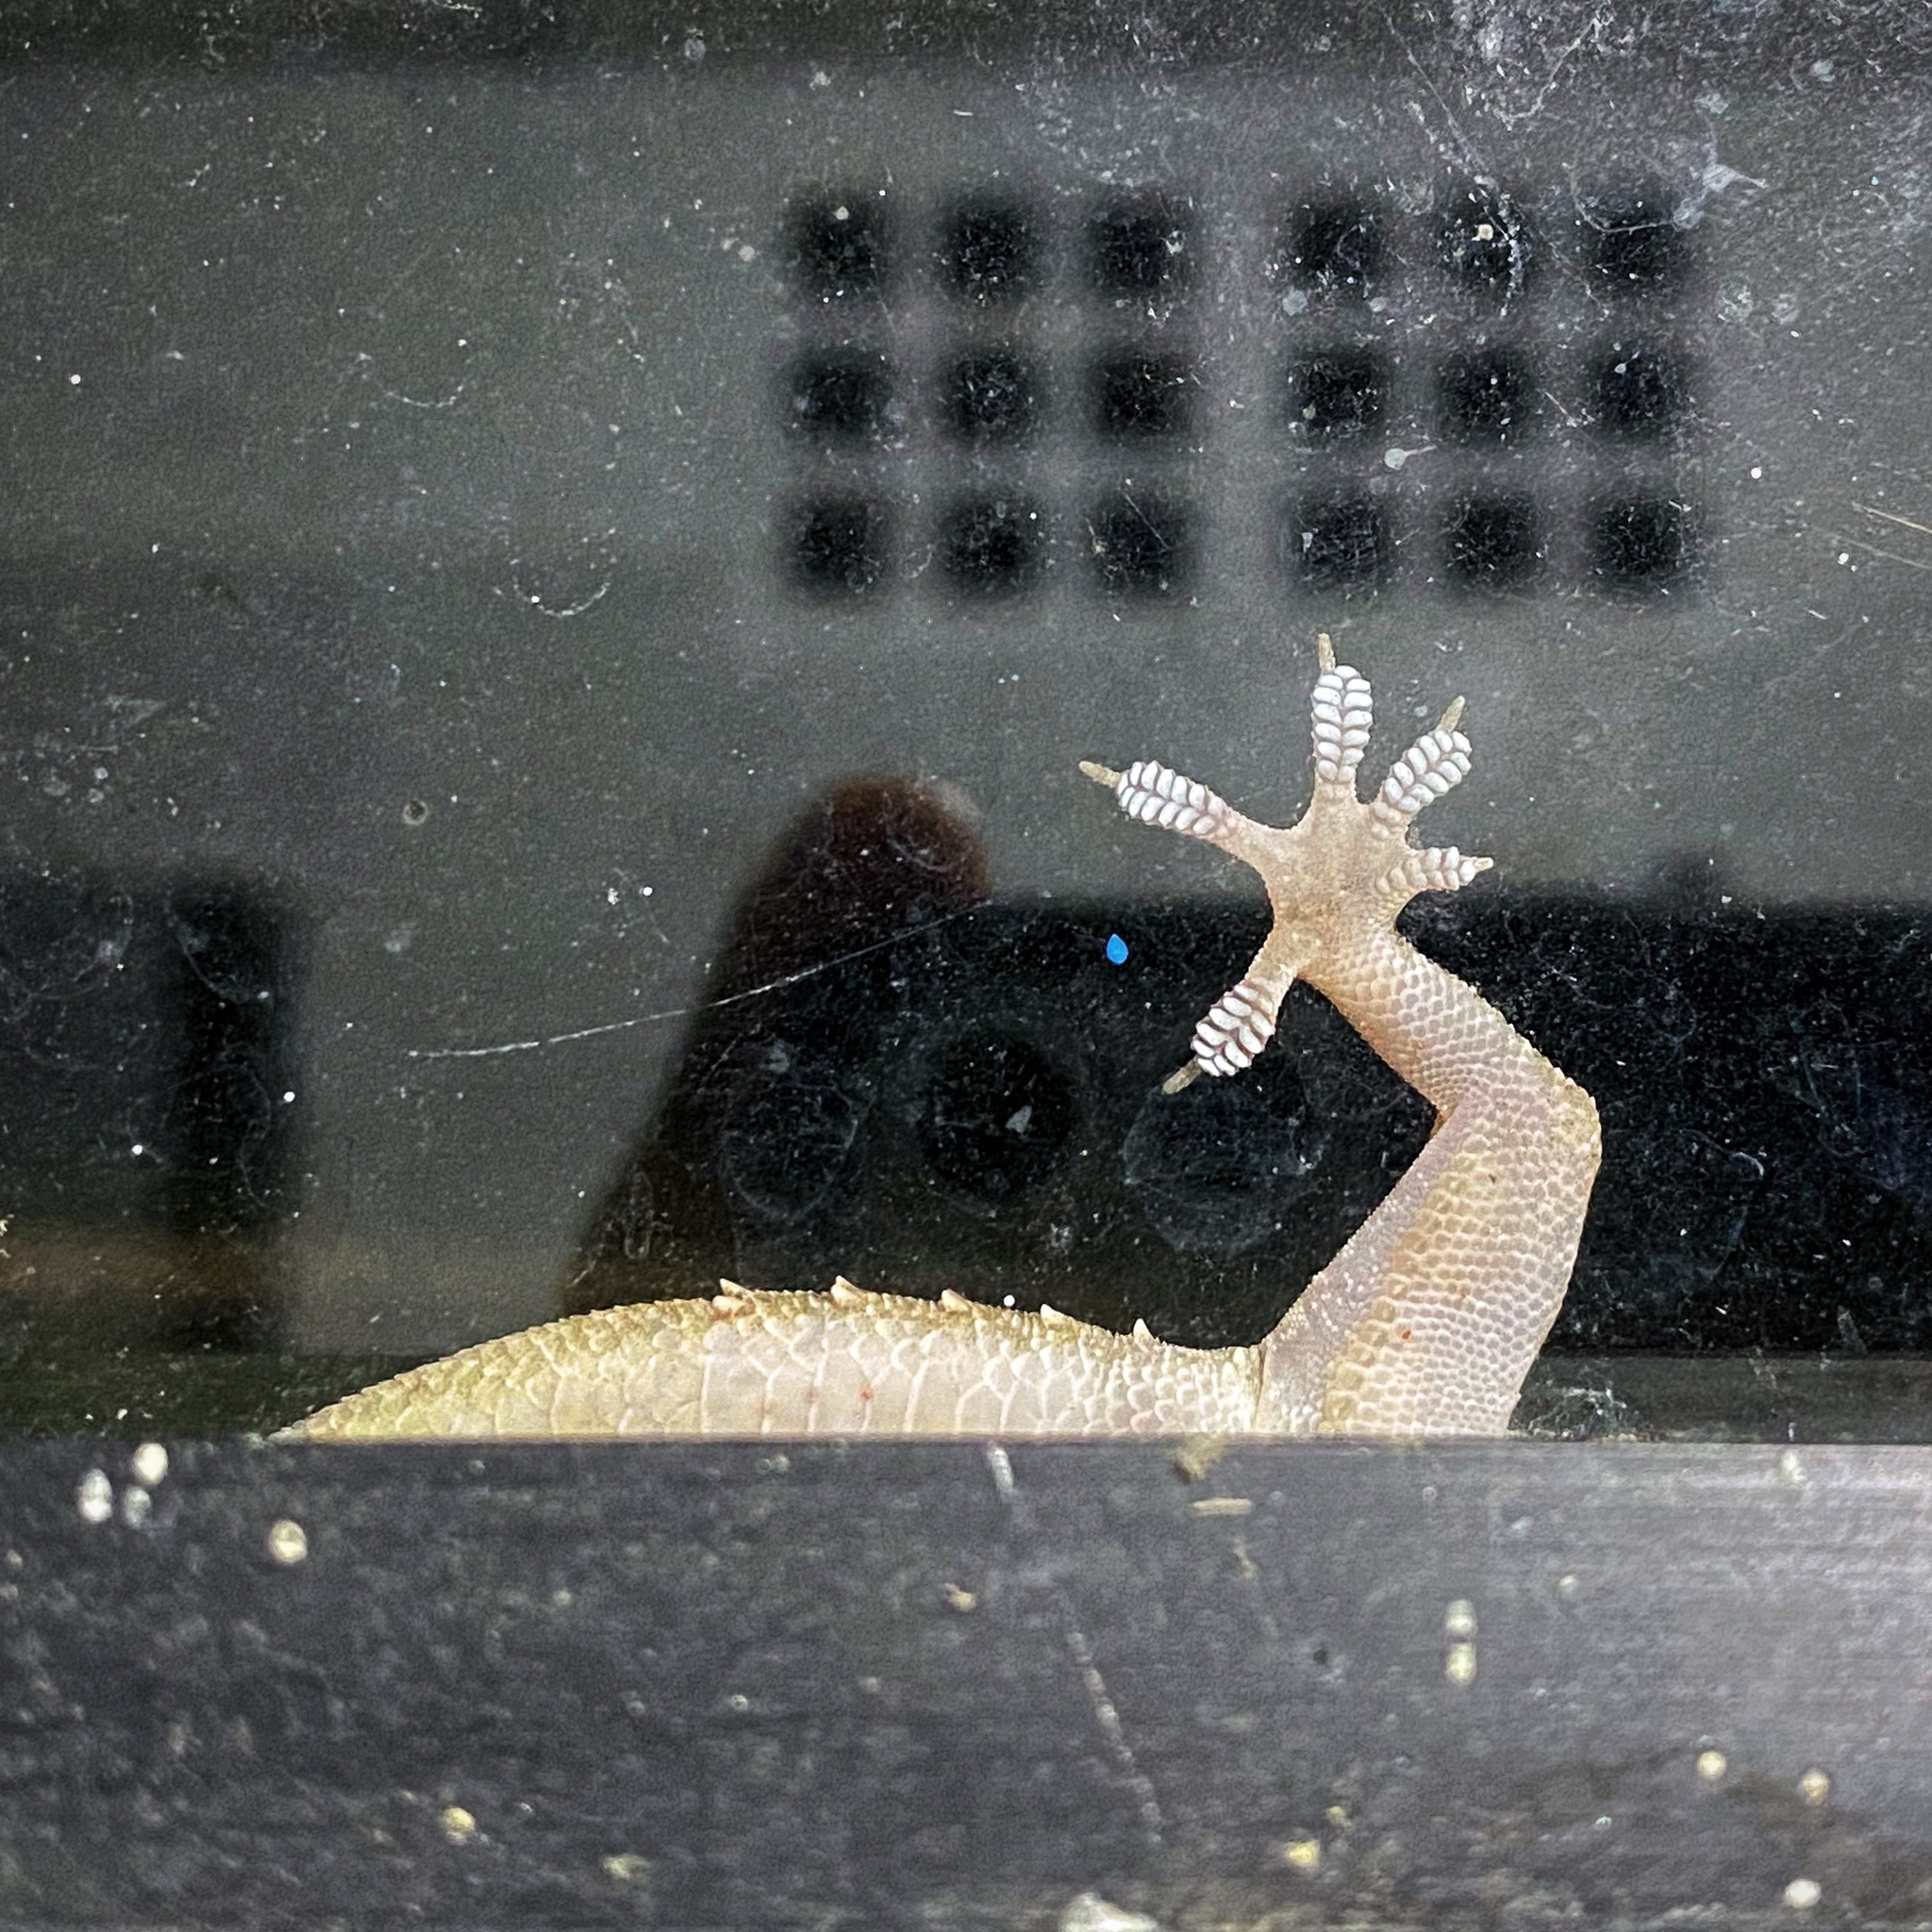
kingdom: Animalia
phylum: Chordata
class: Squamata
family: Gekkonidae
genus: Hemidactylus
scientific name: Hemidactylus mabouia
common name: House gecko
